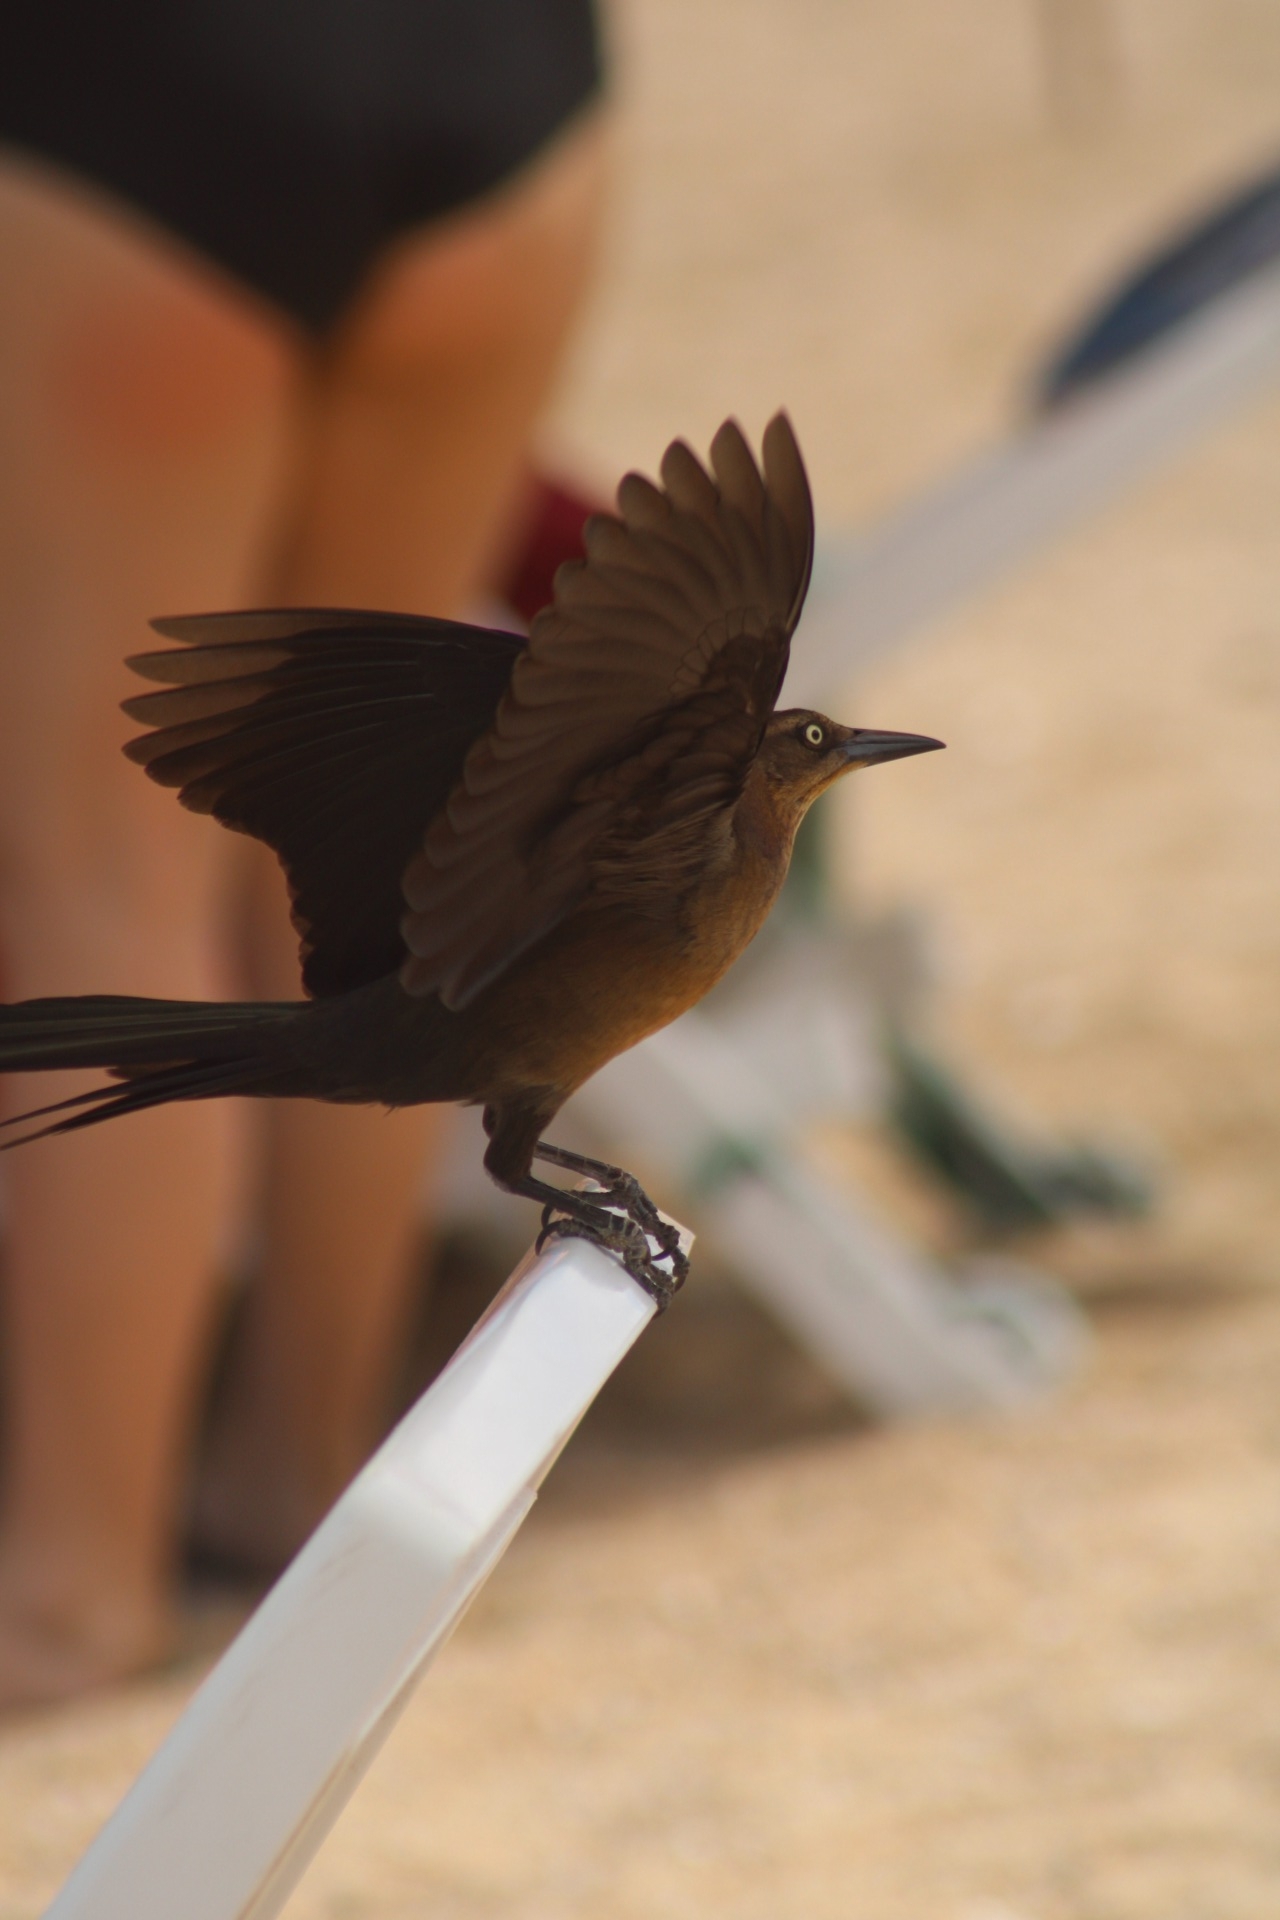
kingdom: Animalia
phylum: Chordata
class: Aves
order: Passeriformes
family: Icteridae
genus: Quiscalus
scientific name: Quiscalus mexicanus
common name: Great-tailed grackle
